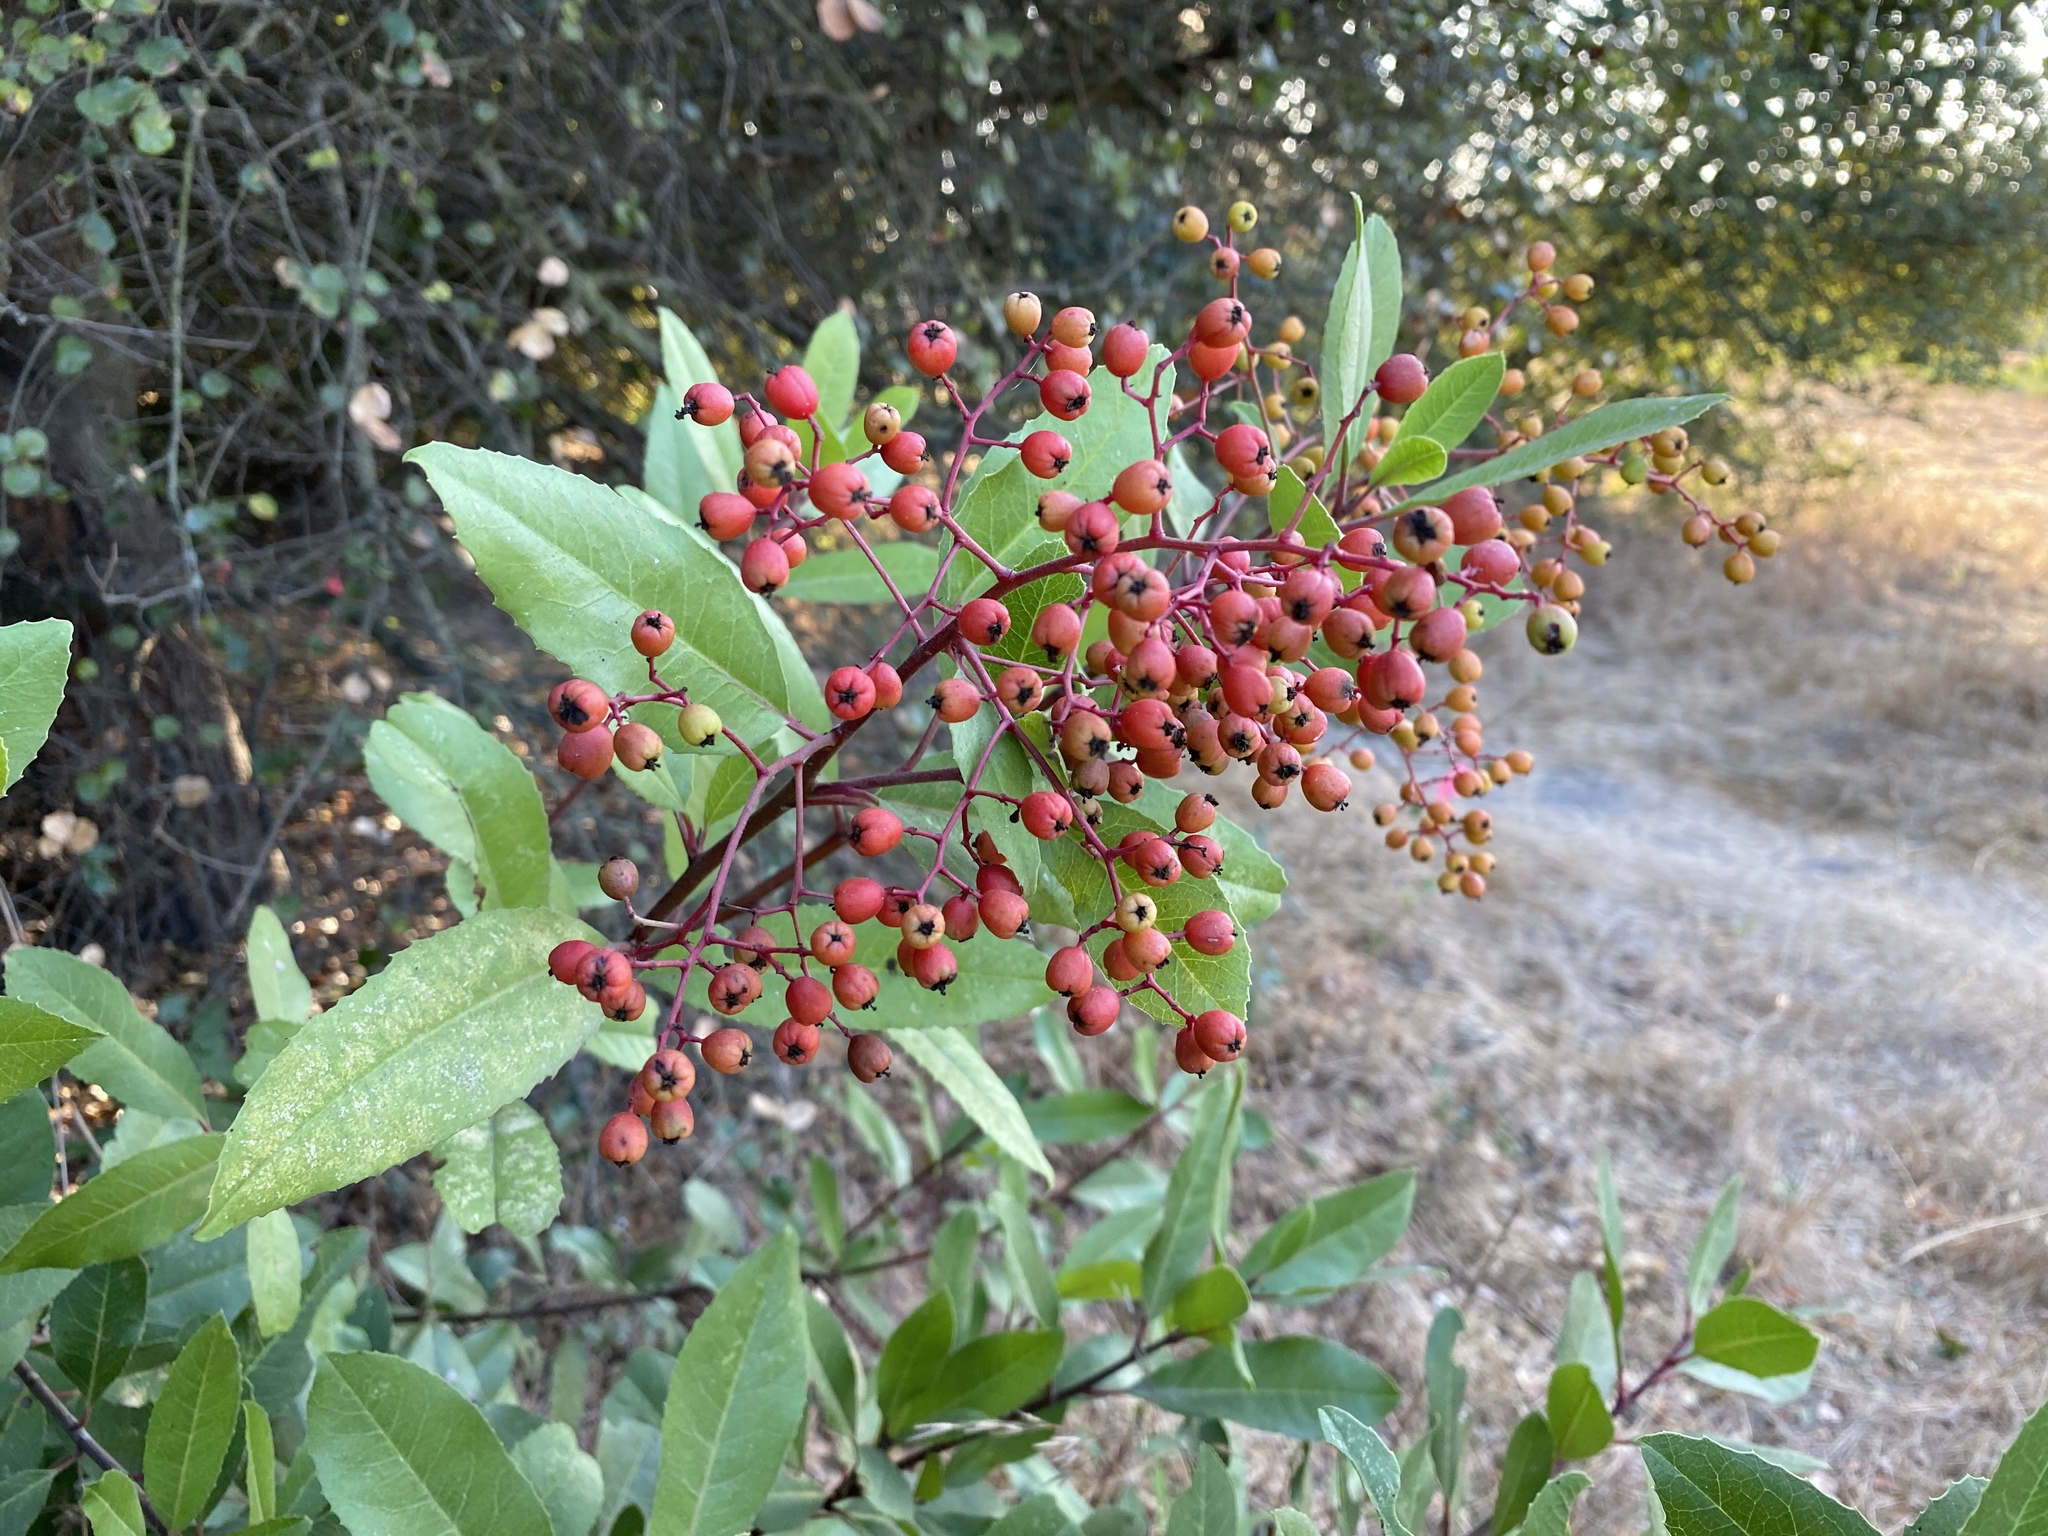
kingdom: Plantae
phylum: Tracheophyta
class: Magnoliopsida
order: Rosales
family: Rosaceae
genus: Heteromeles
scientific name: Heteromeles arbutifolia
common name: California-holly
